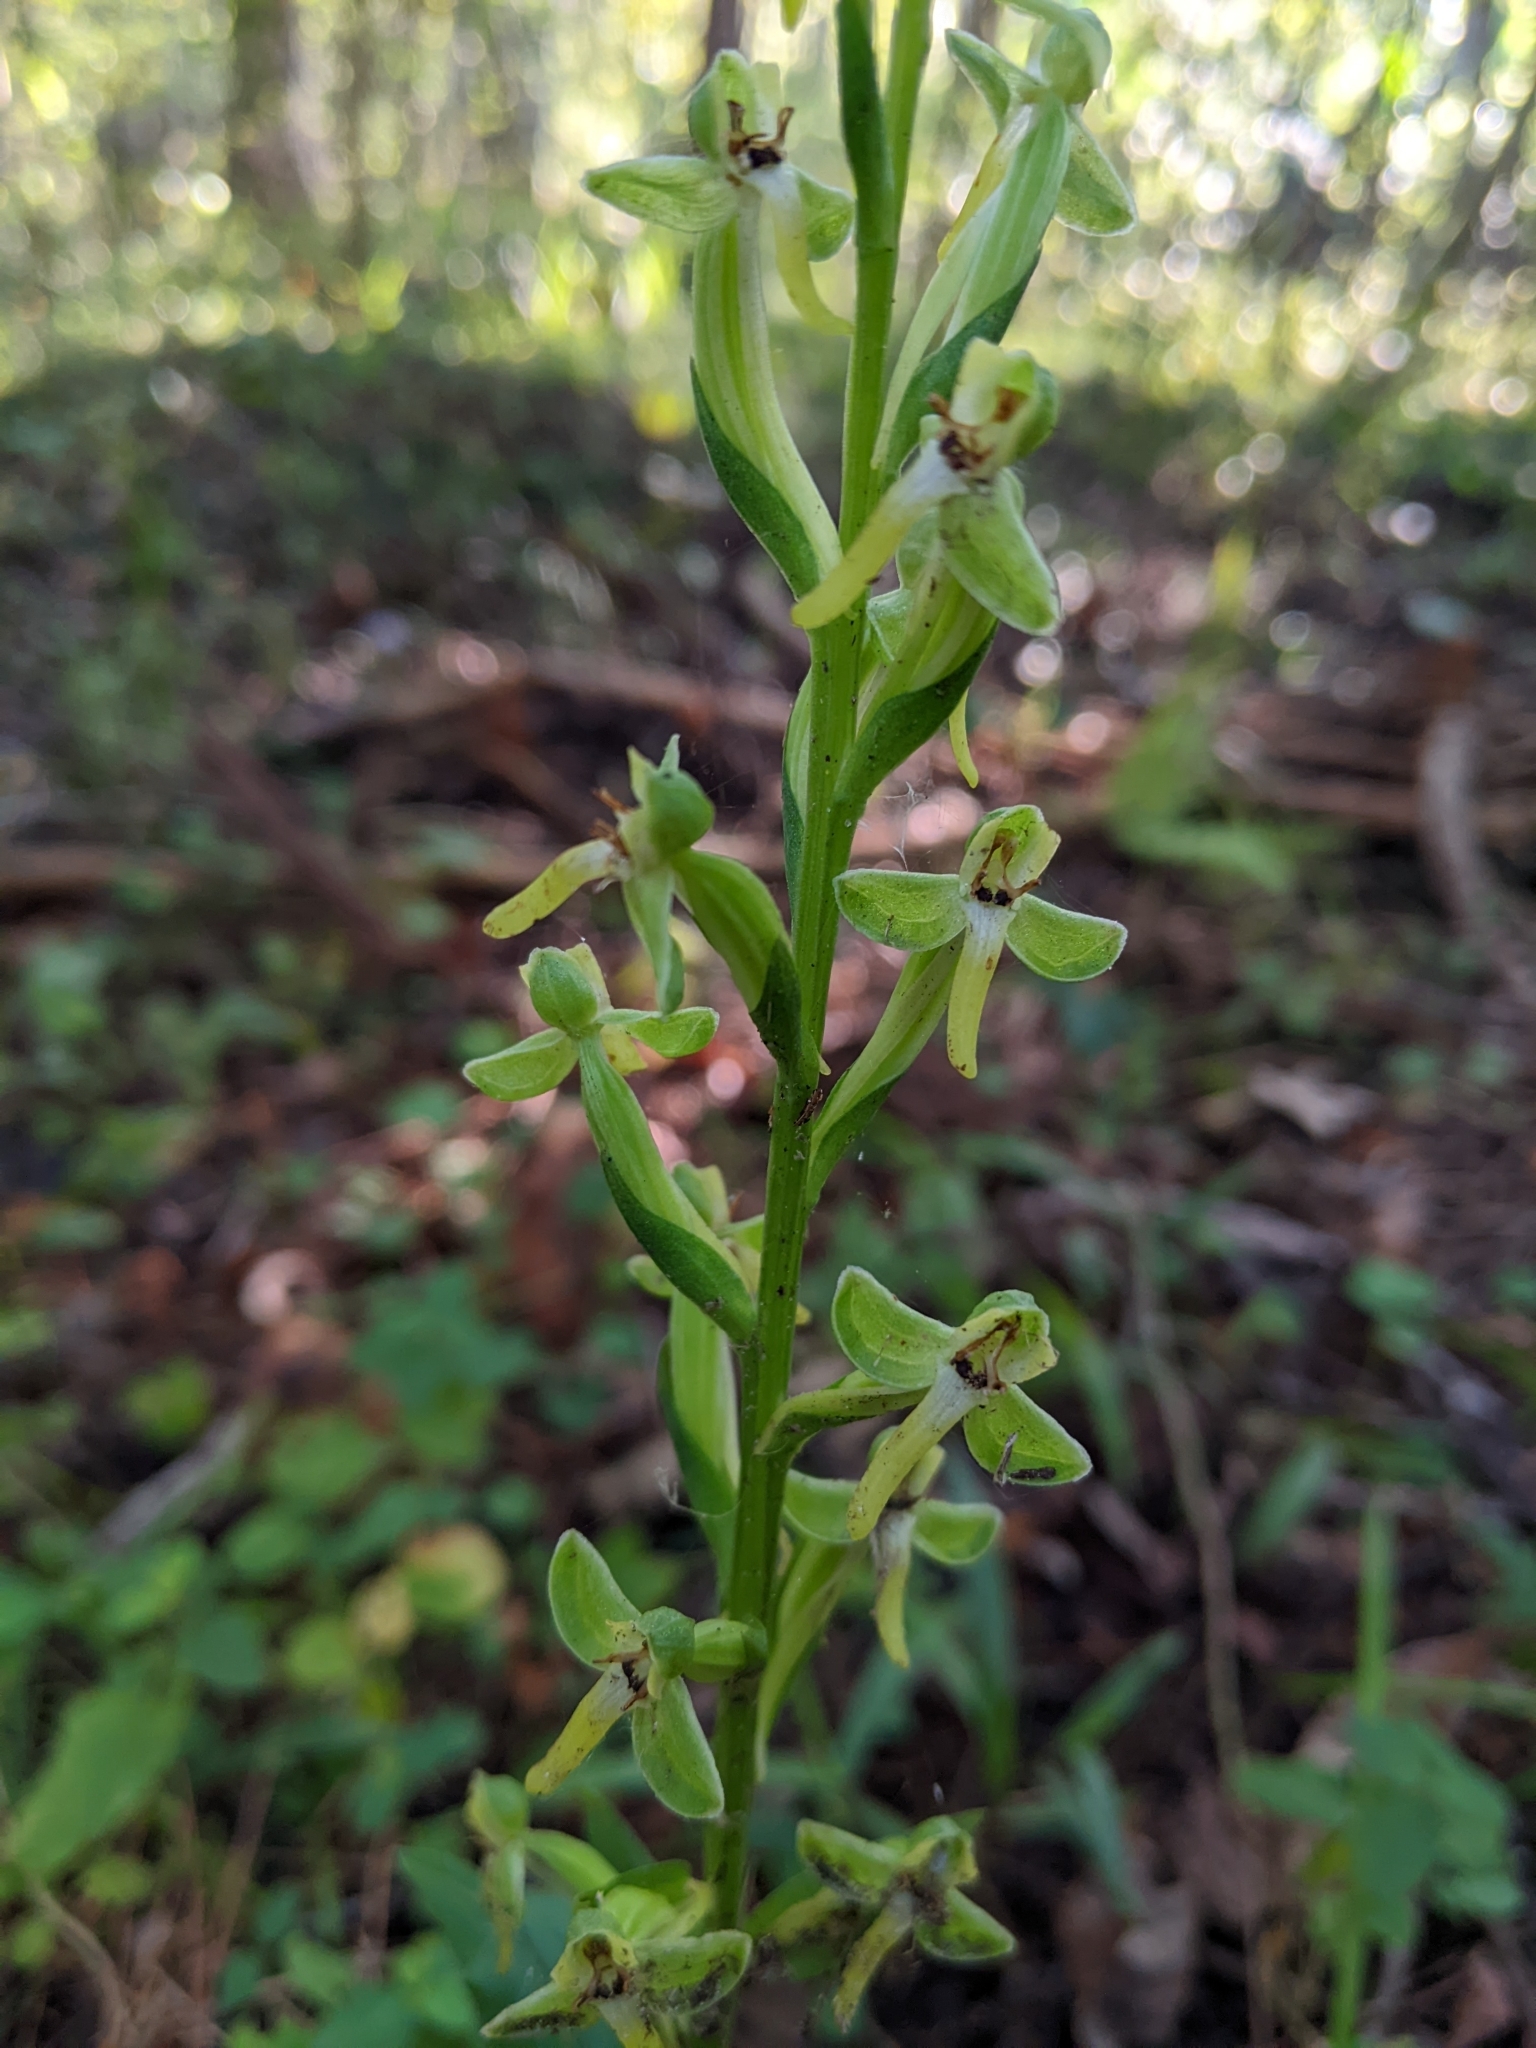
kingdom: Plantae
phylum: Tracheophyta
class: Liliopsida
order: Asparagales
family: Orchidaceae
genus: Habenaria
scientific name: Habenaria floribunda
